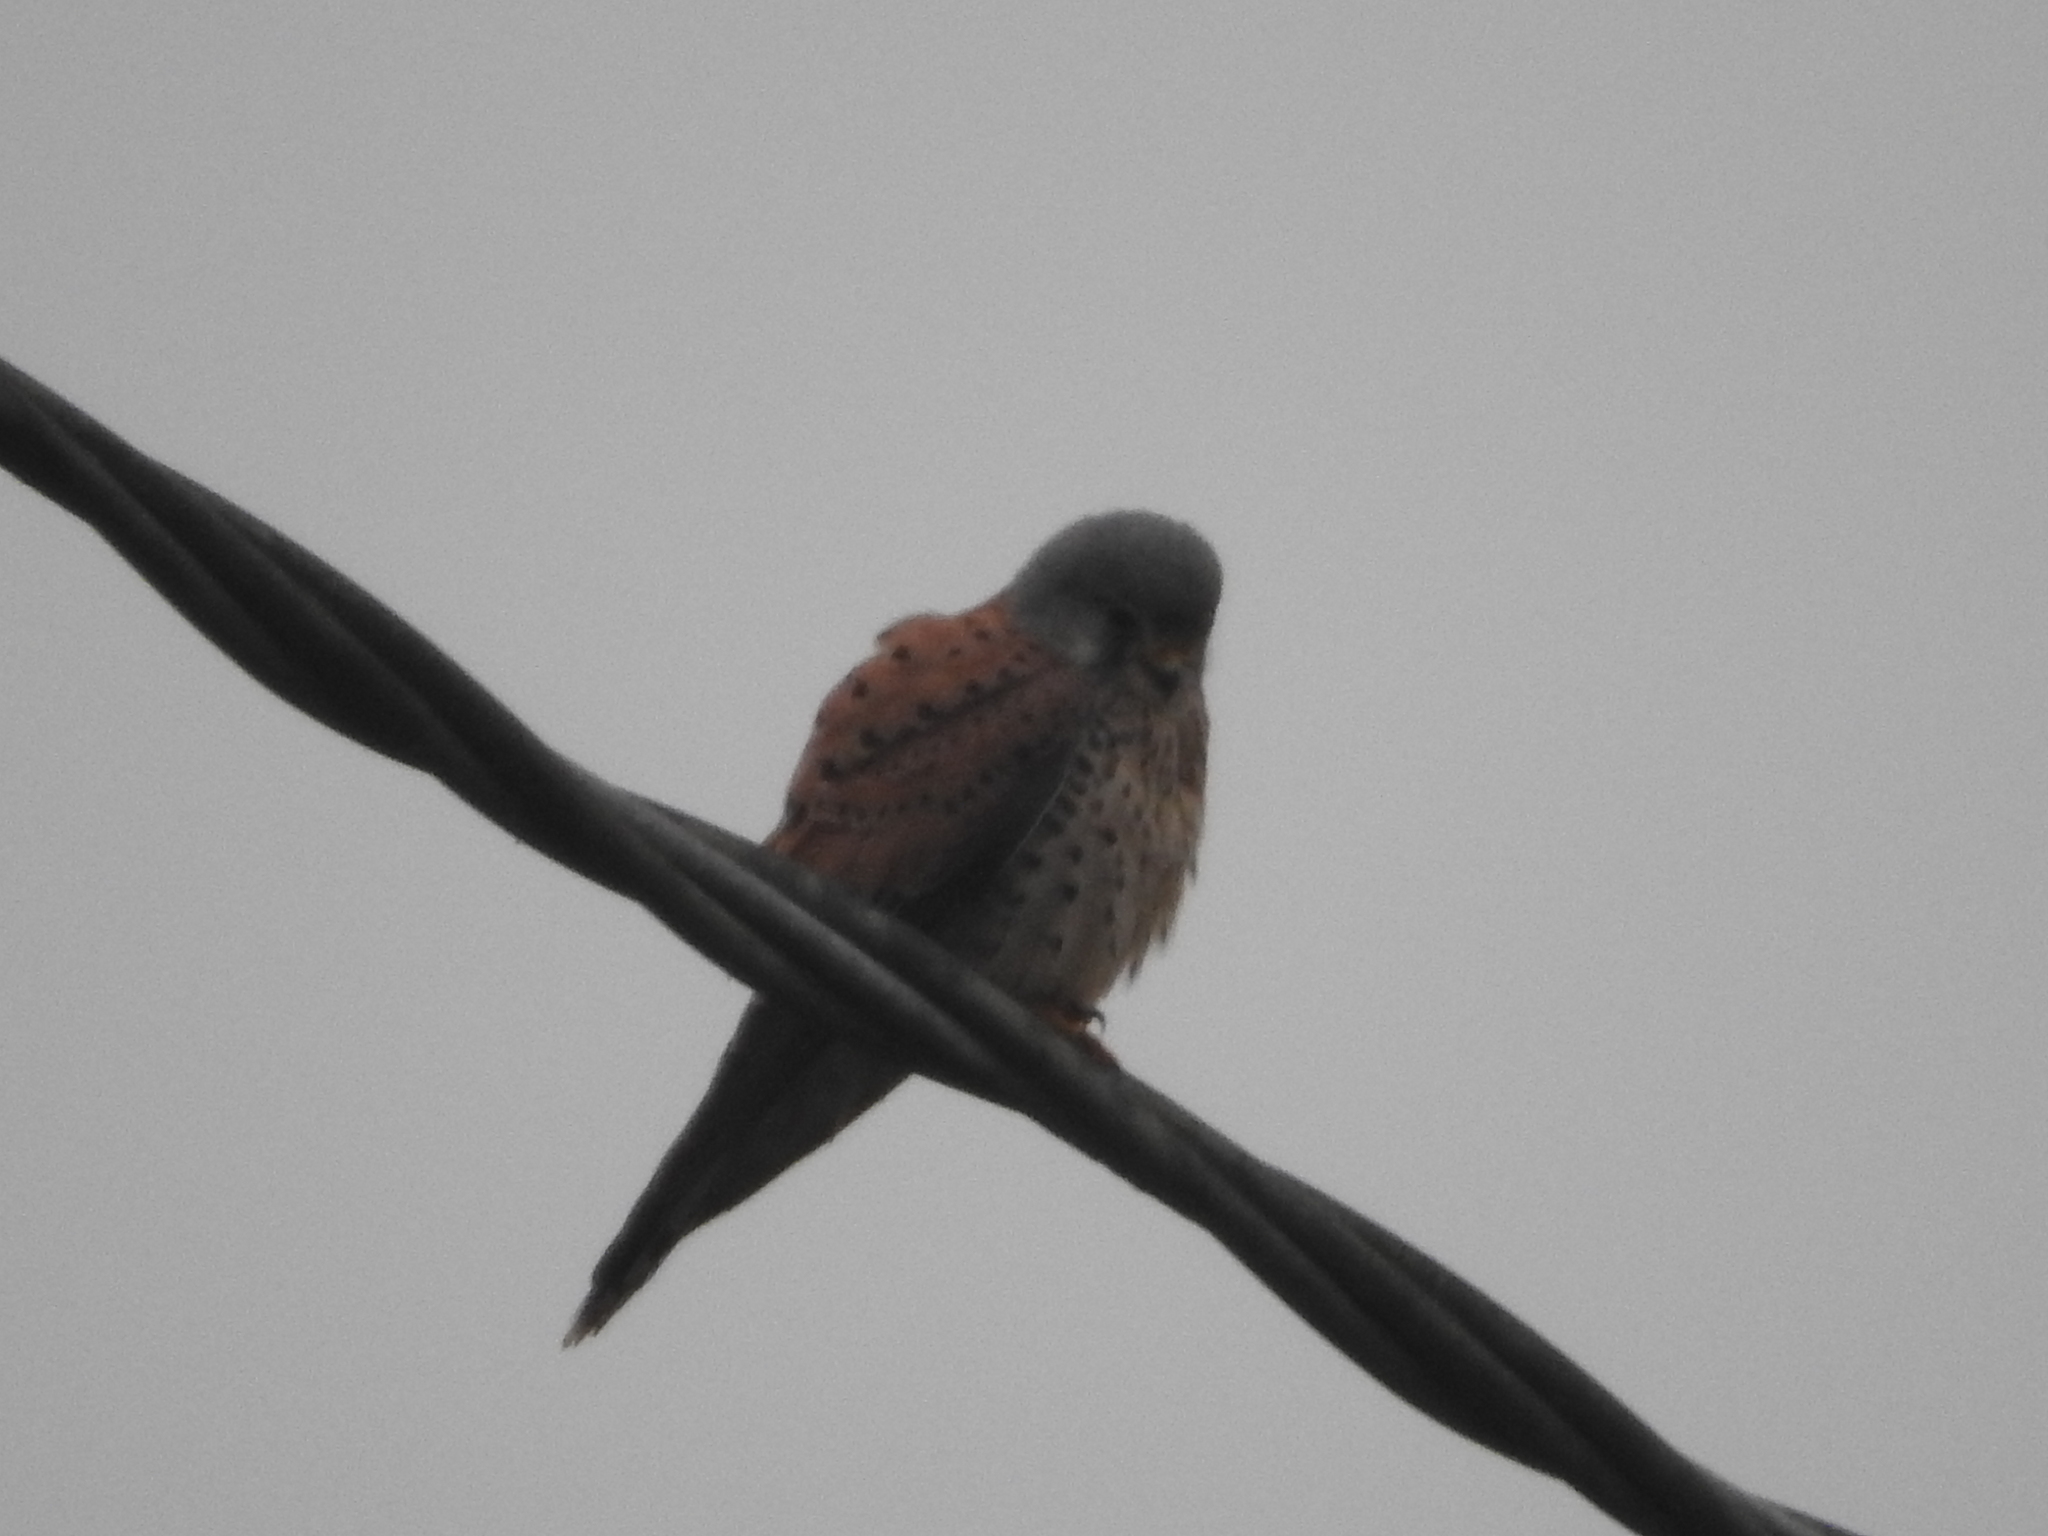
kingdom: Animalia
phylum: Chordata
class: Aves
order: Falconiformes
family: Falconidae
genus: Falco
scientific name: Falco tinnunculus
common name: Common kestrel
